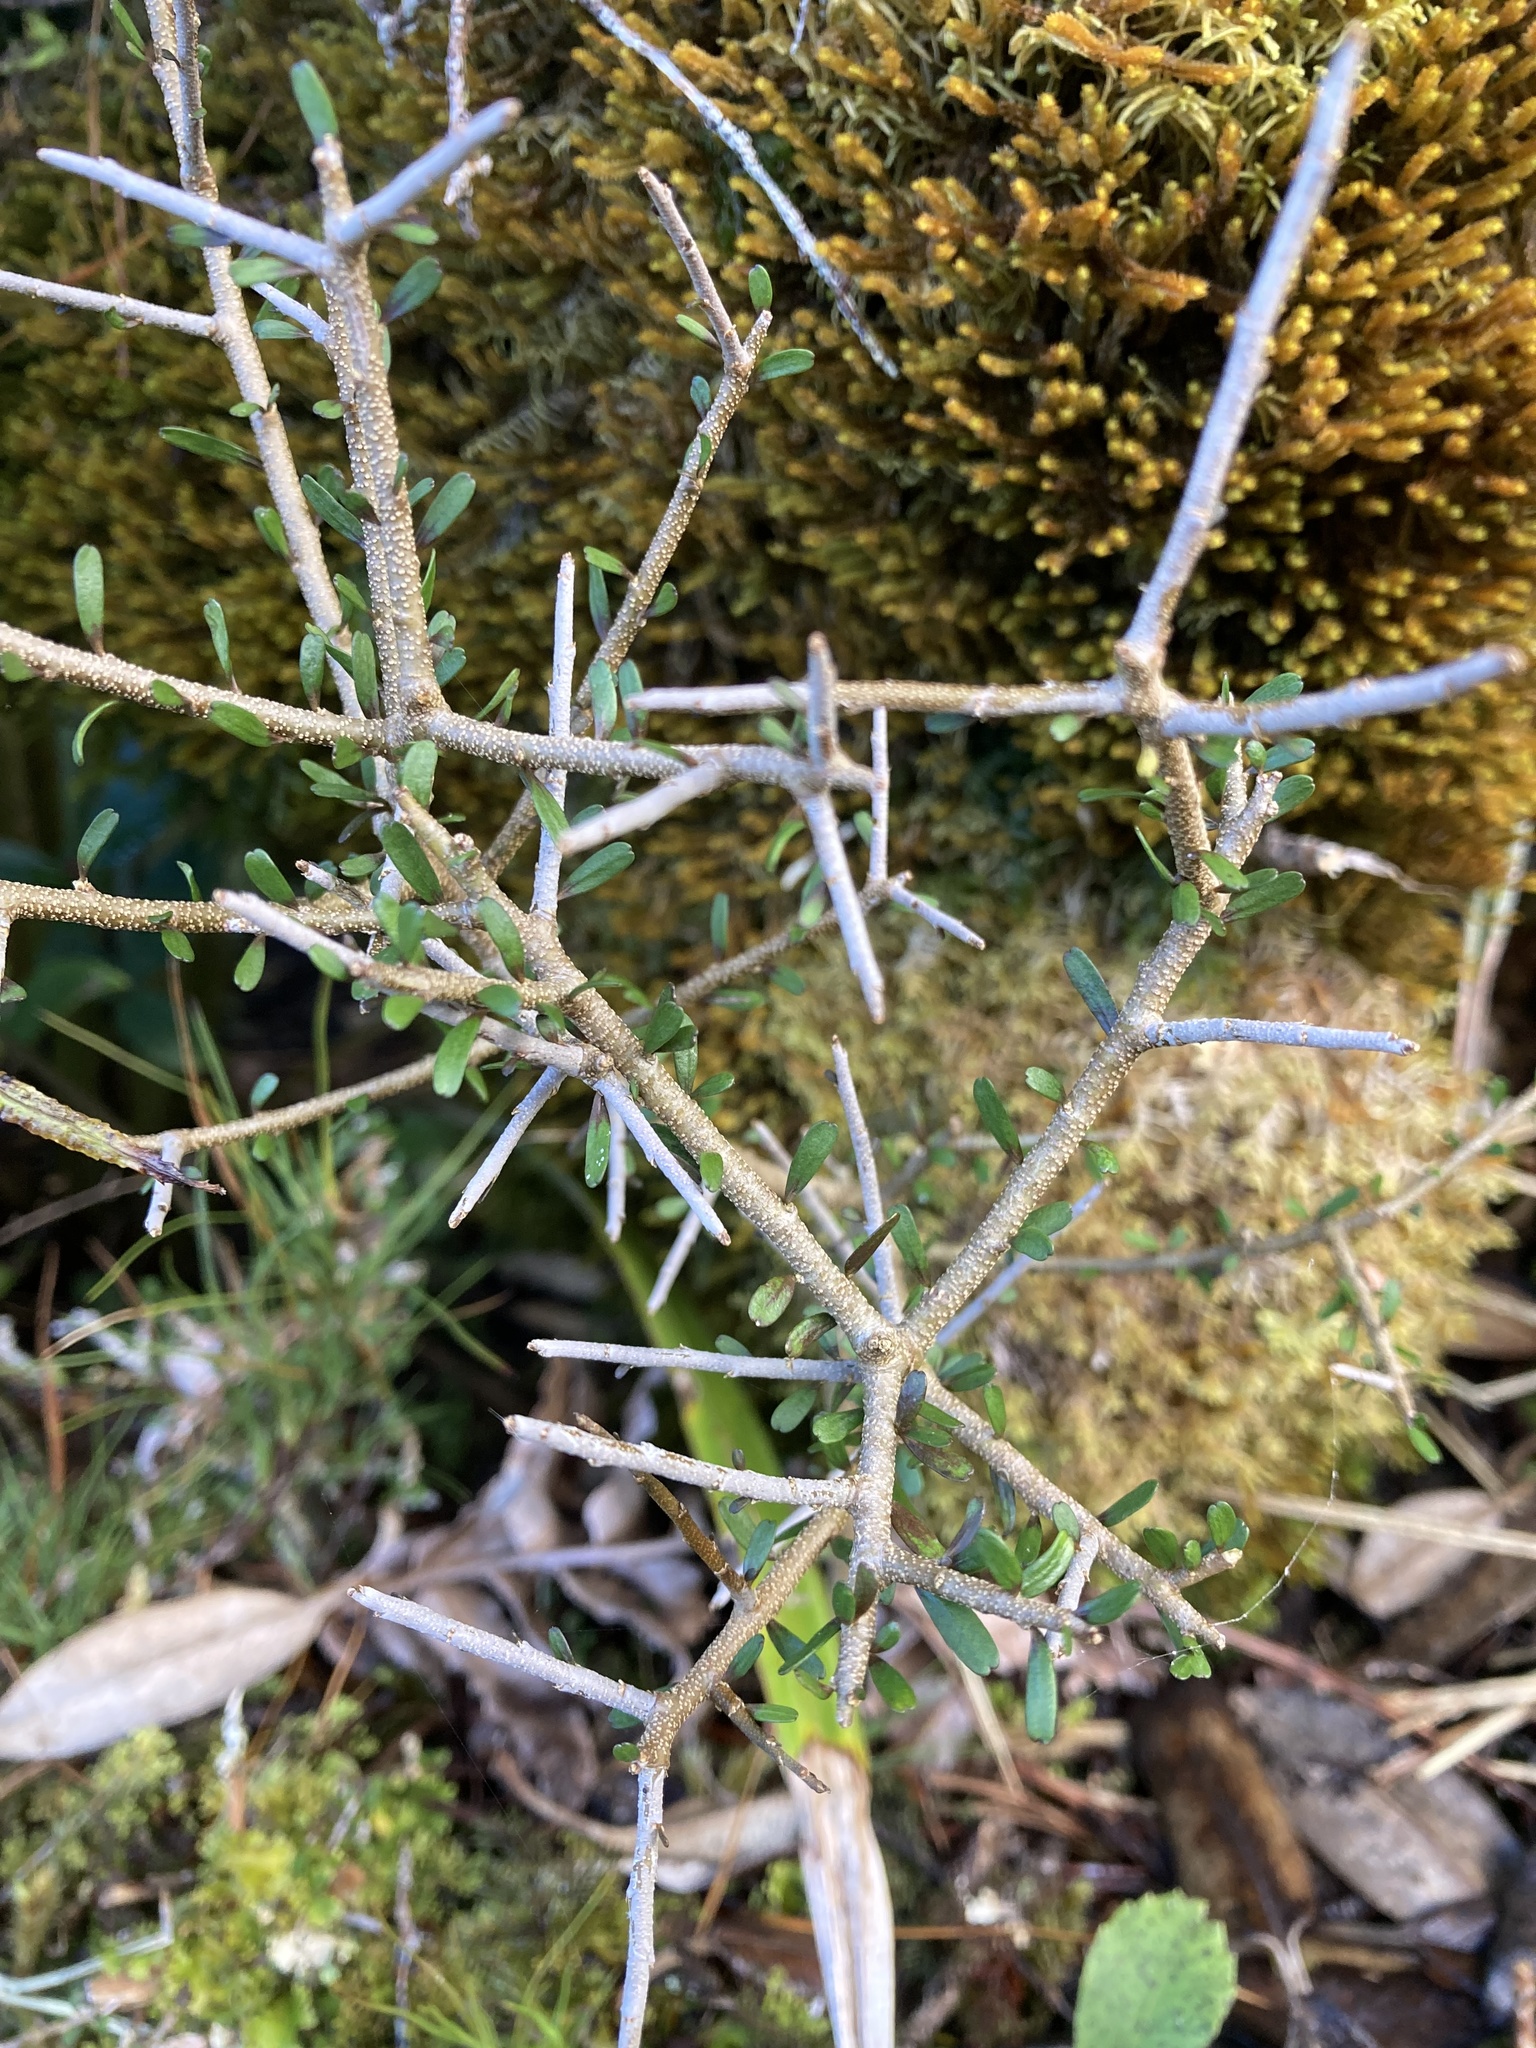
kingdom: Plantae
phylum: Tracheophyta
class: Magnoliopsida
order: Malpighiales
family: Violaceae
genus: Melicytus
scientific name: Melicytus drucei
